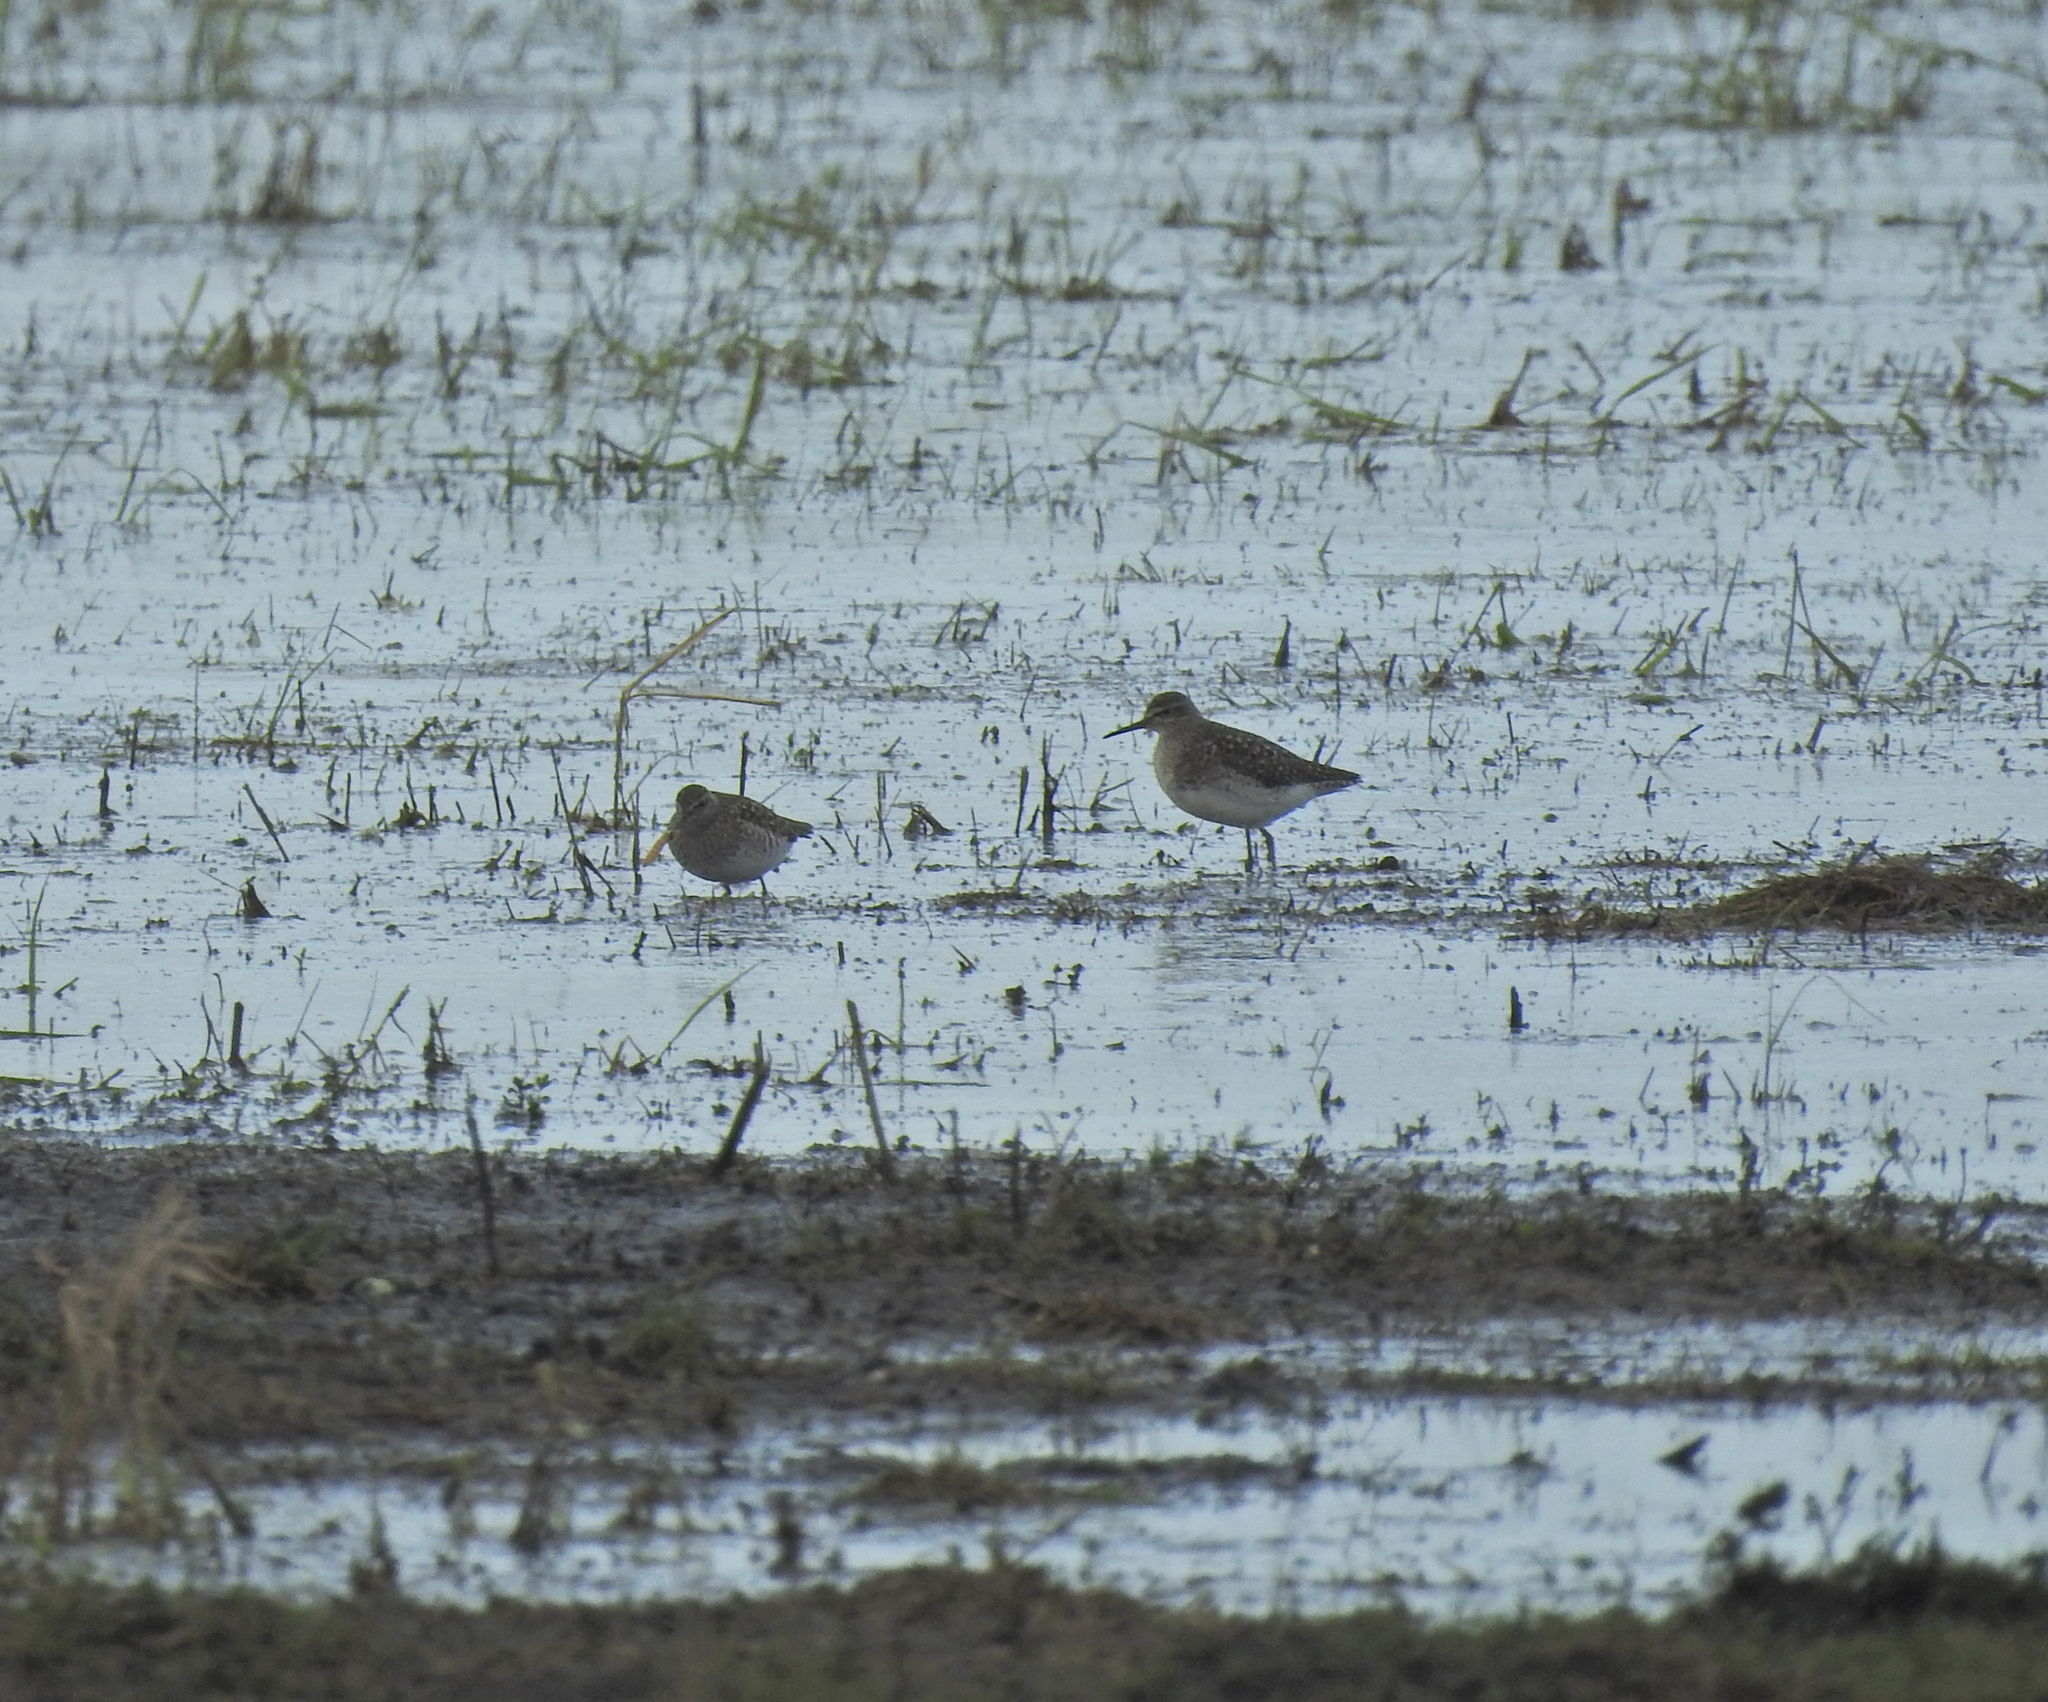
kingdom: Animalia
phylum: Chordata
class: Aves
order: Charadriiformes
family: Scolopacidae
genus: Tringa
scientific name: Tringa glareola
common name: Wood sandpiper
